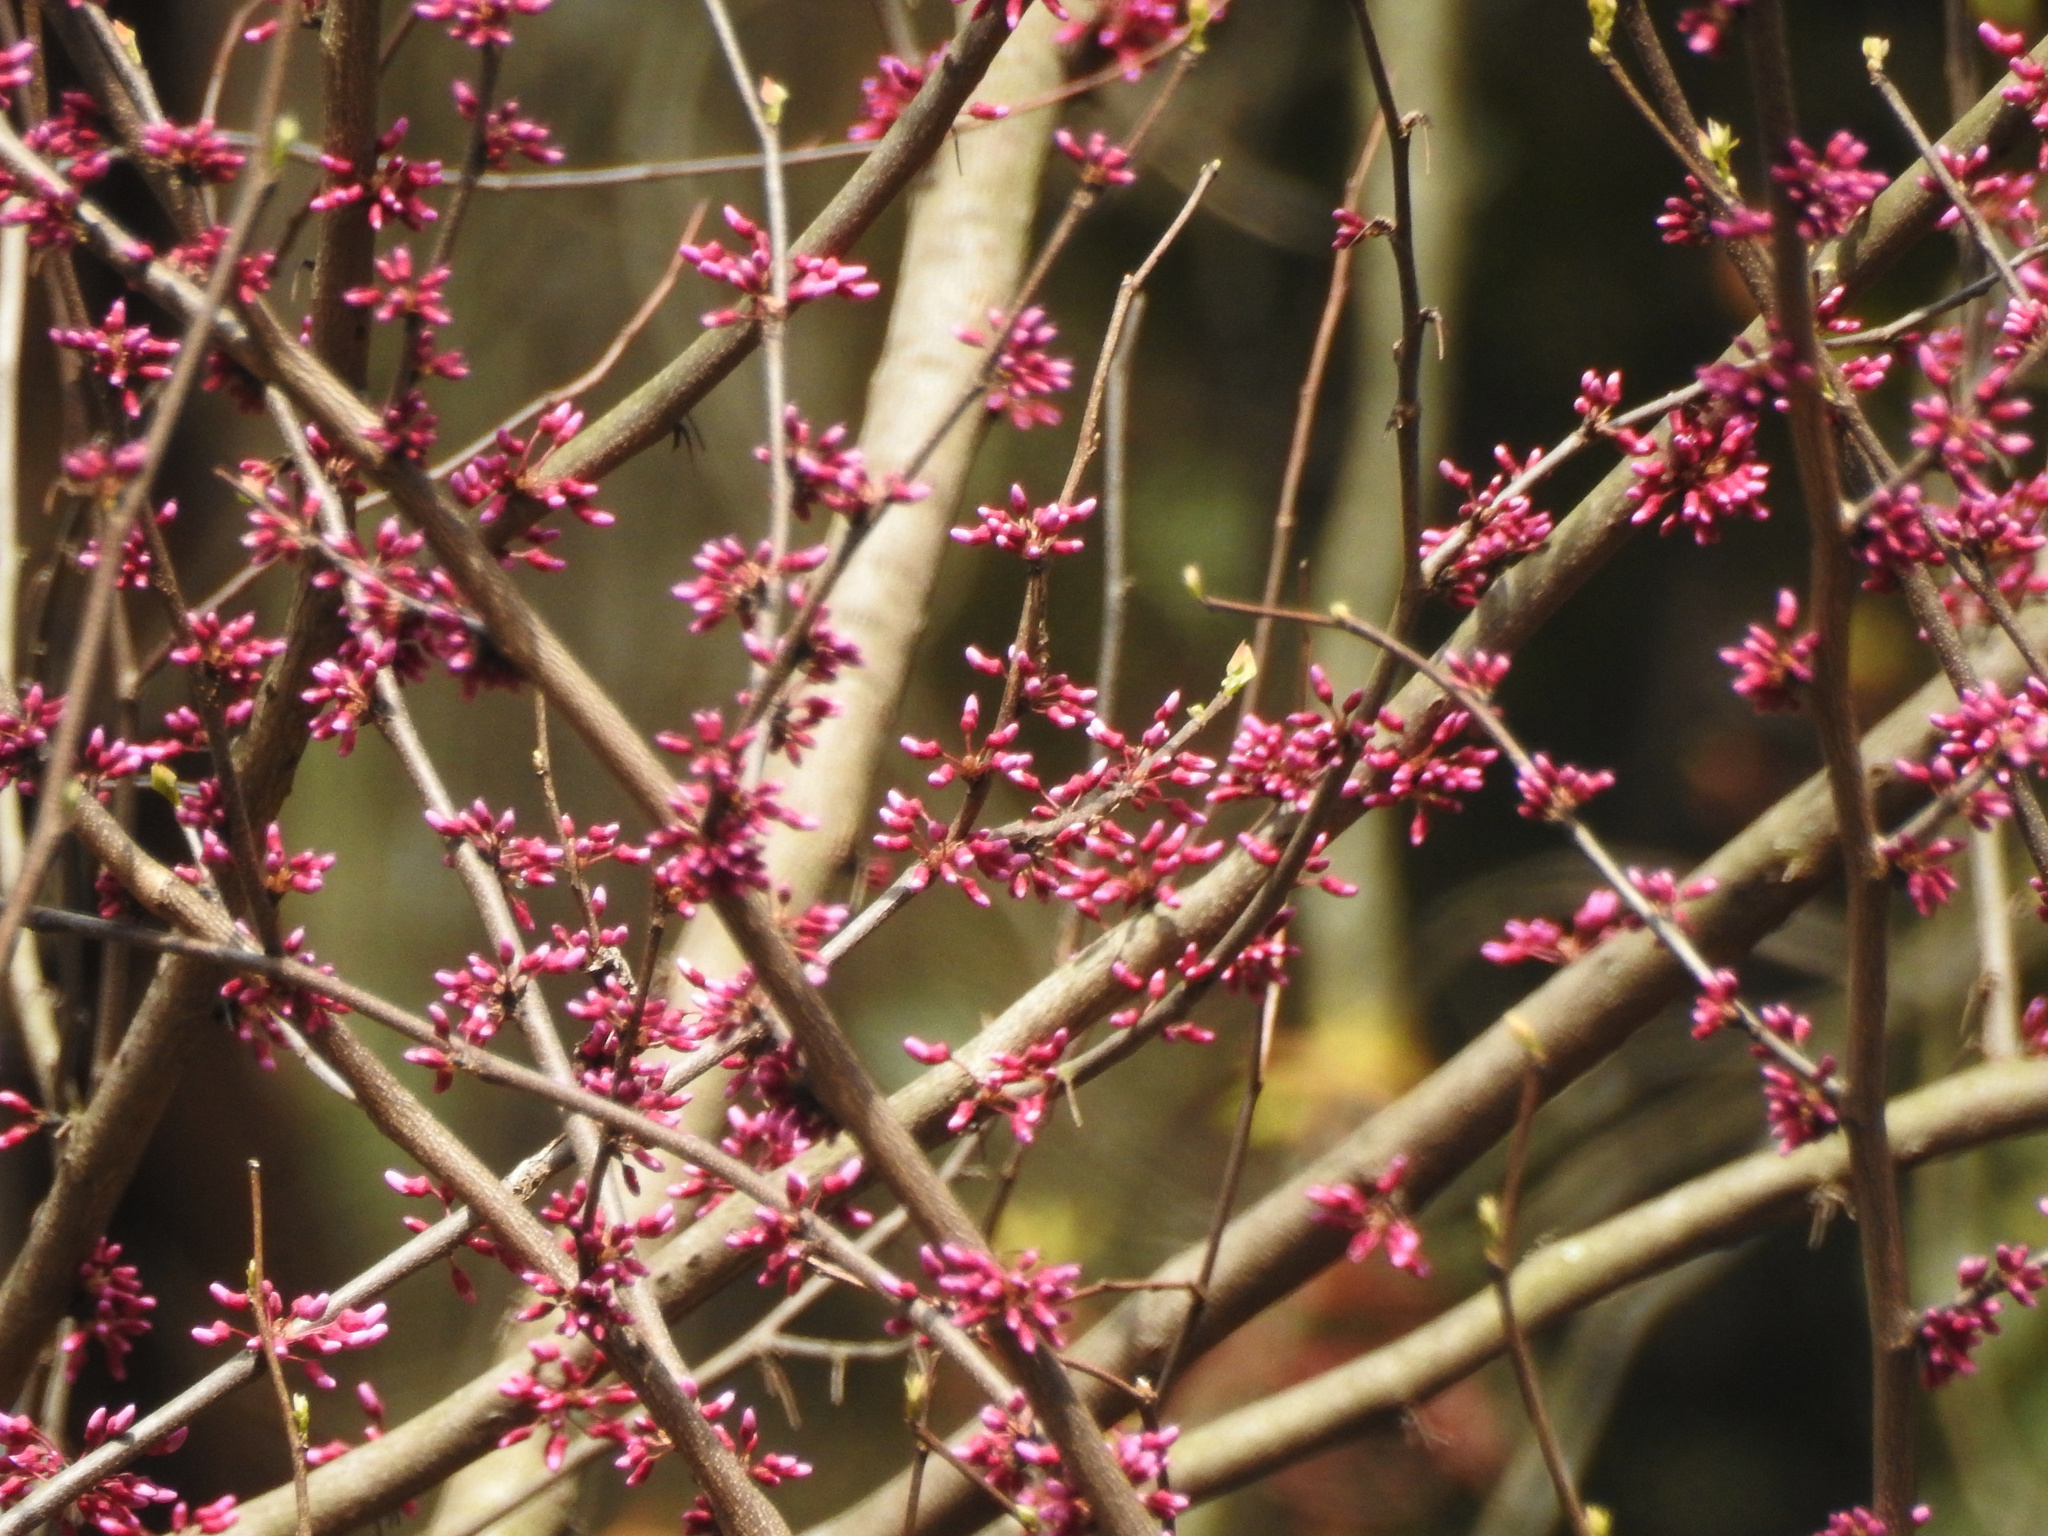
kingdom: Plantae
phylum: Tracheophyta
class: Magnoliopsida
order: Fabales
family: Fabaceae
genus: Cercis
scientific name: Cercis canadensis
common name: Eastern redbud
